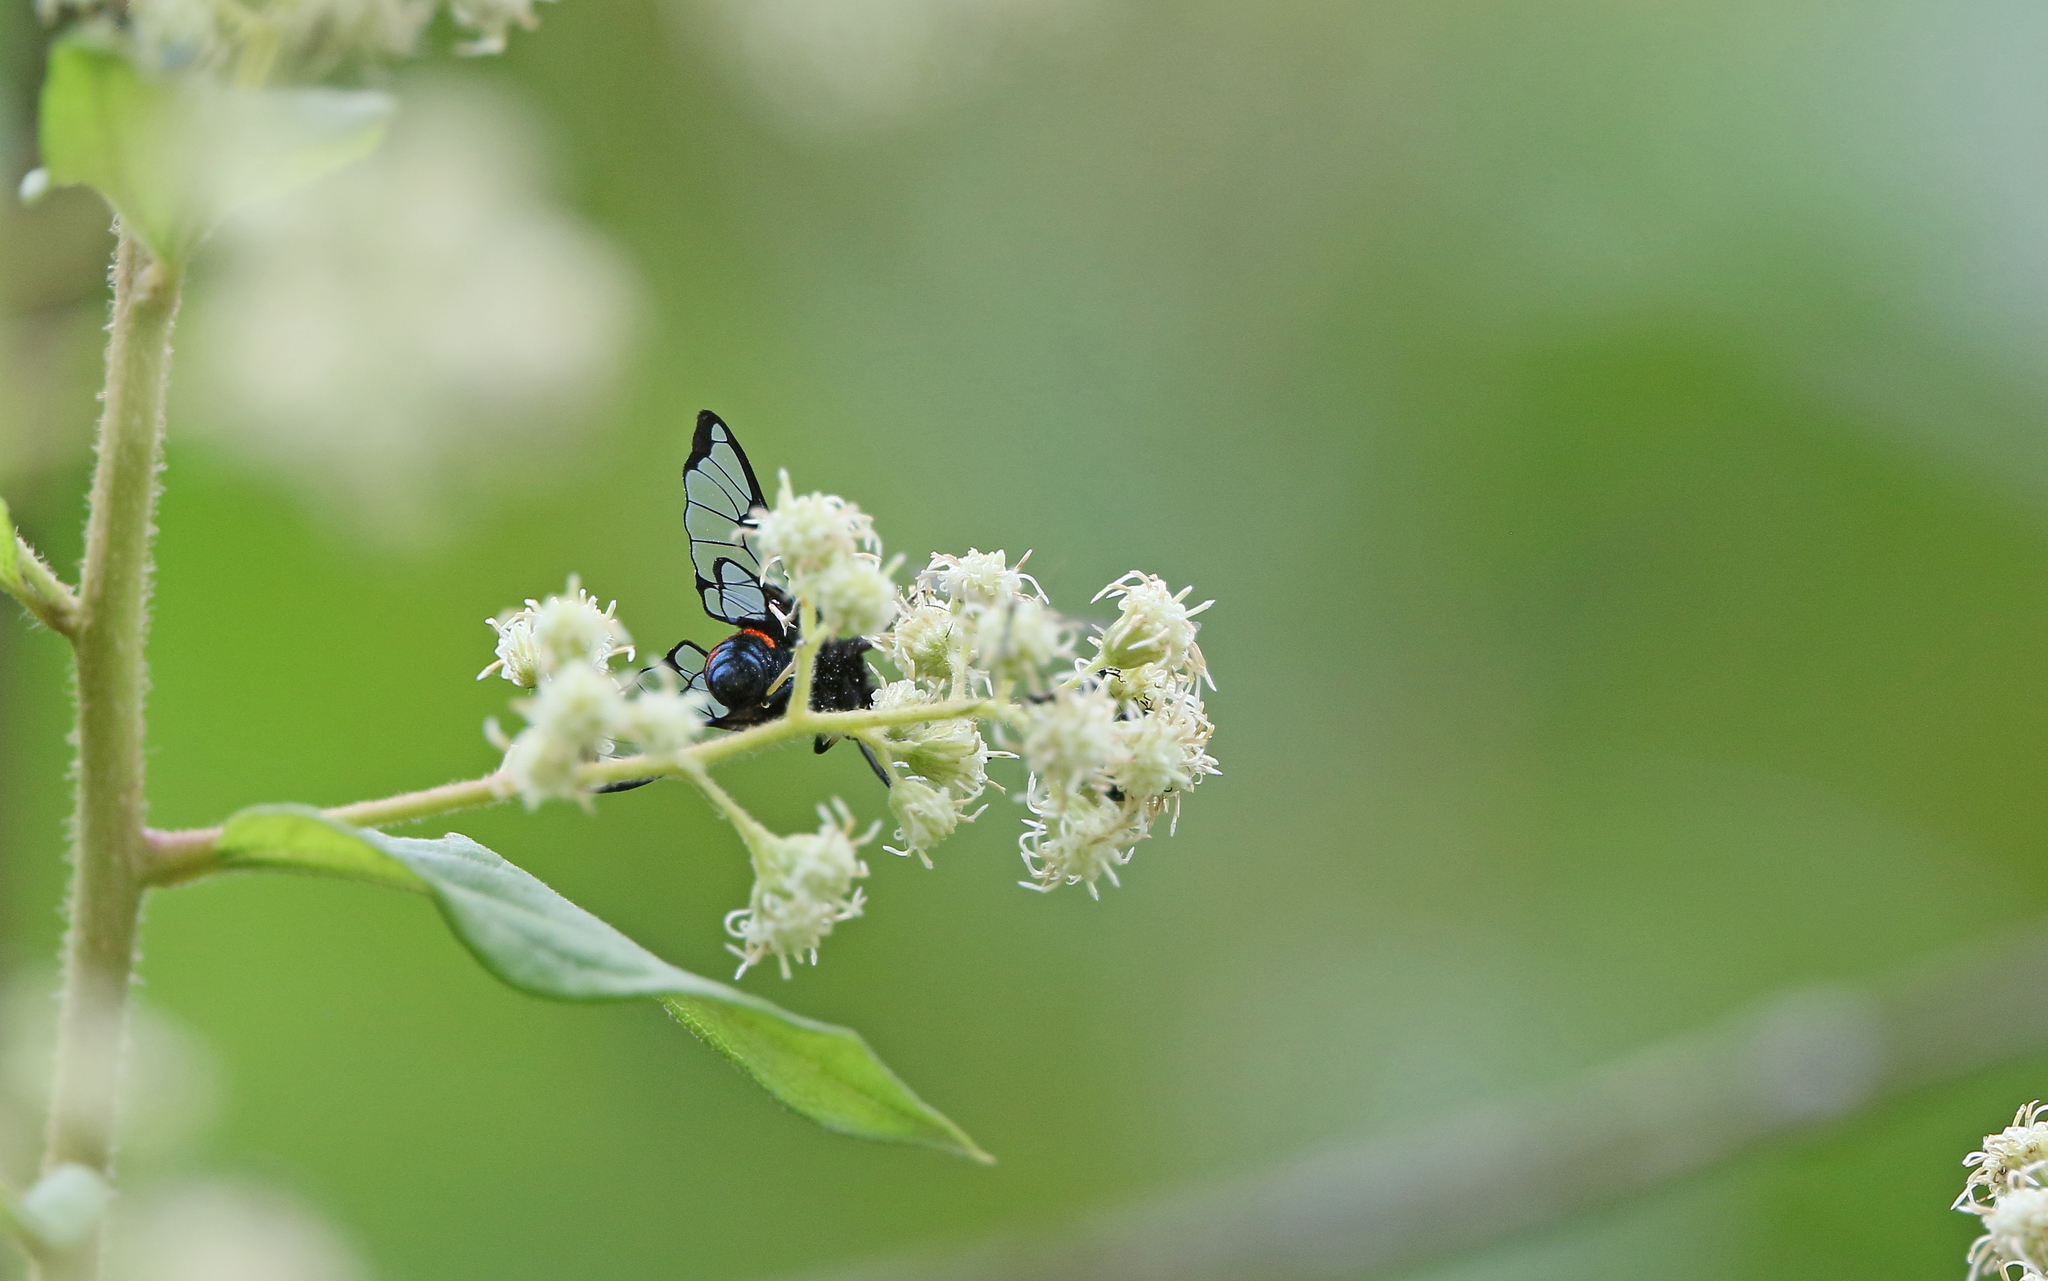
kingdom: Animalia
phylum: Arthropoda
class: Insecta
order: Lepidoptera
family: Erebidae
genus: Dasysphinx
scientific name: Dasysphinx baroni
